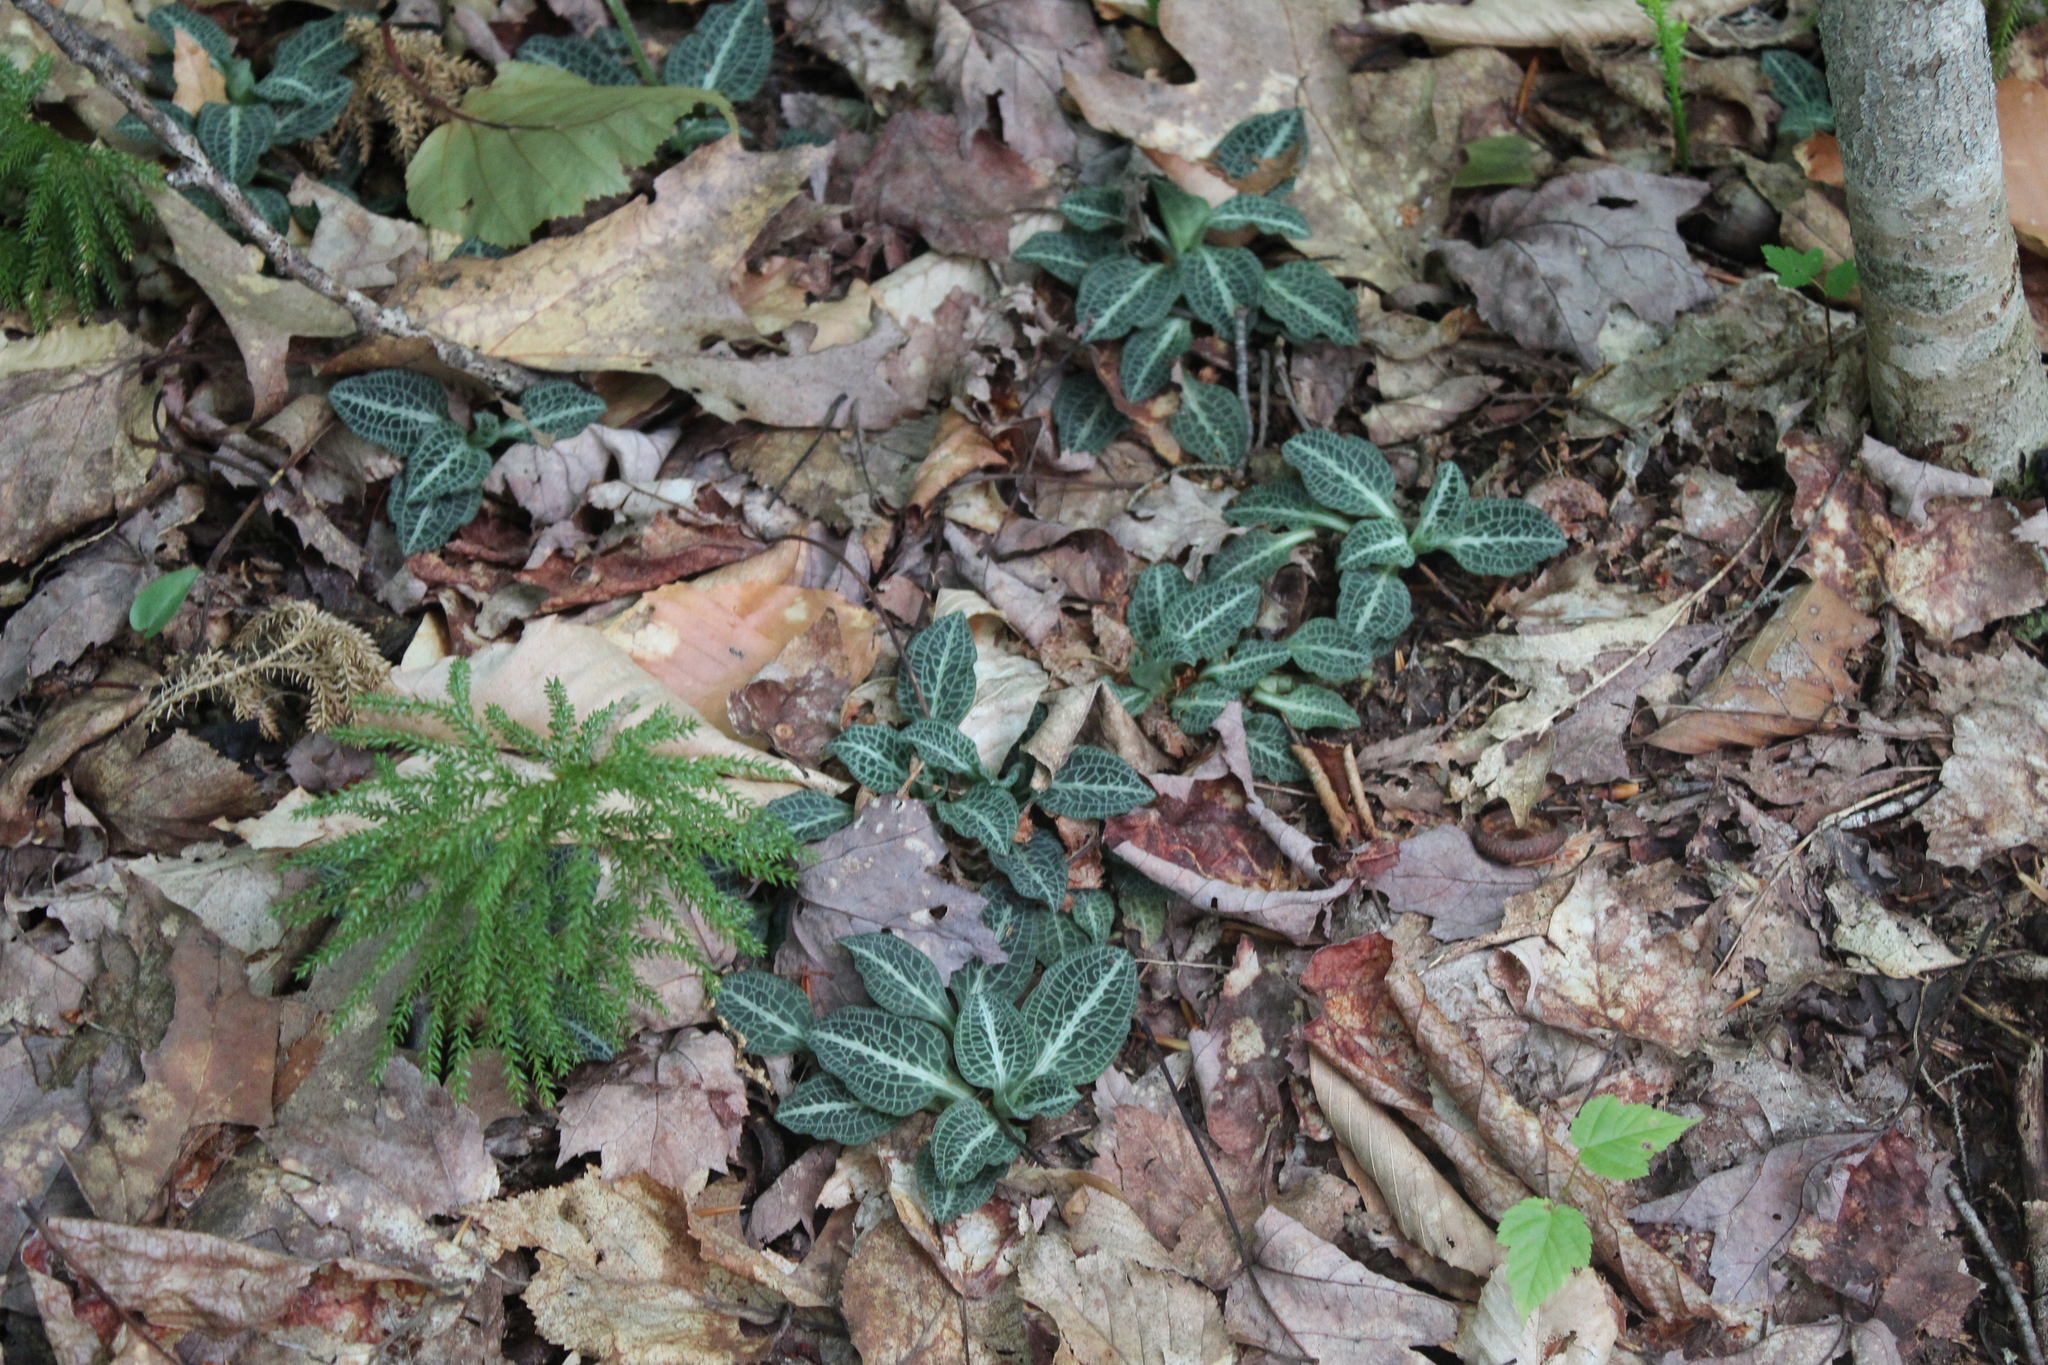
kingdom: Plantae
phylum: Tracheophyta
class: Liliopsida
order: Asparagales
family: Orchidaceae
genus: Goodyera
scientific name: Goodyera pubescens
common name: Downy rattlesnake-plantain
